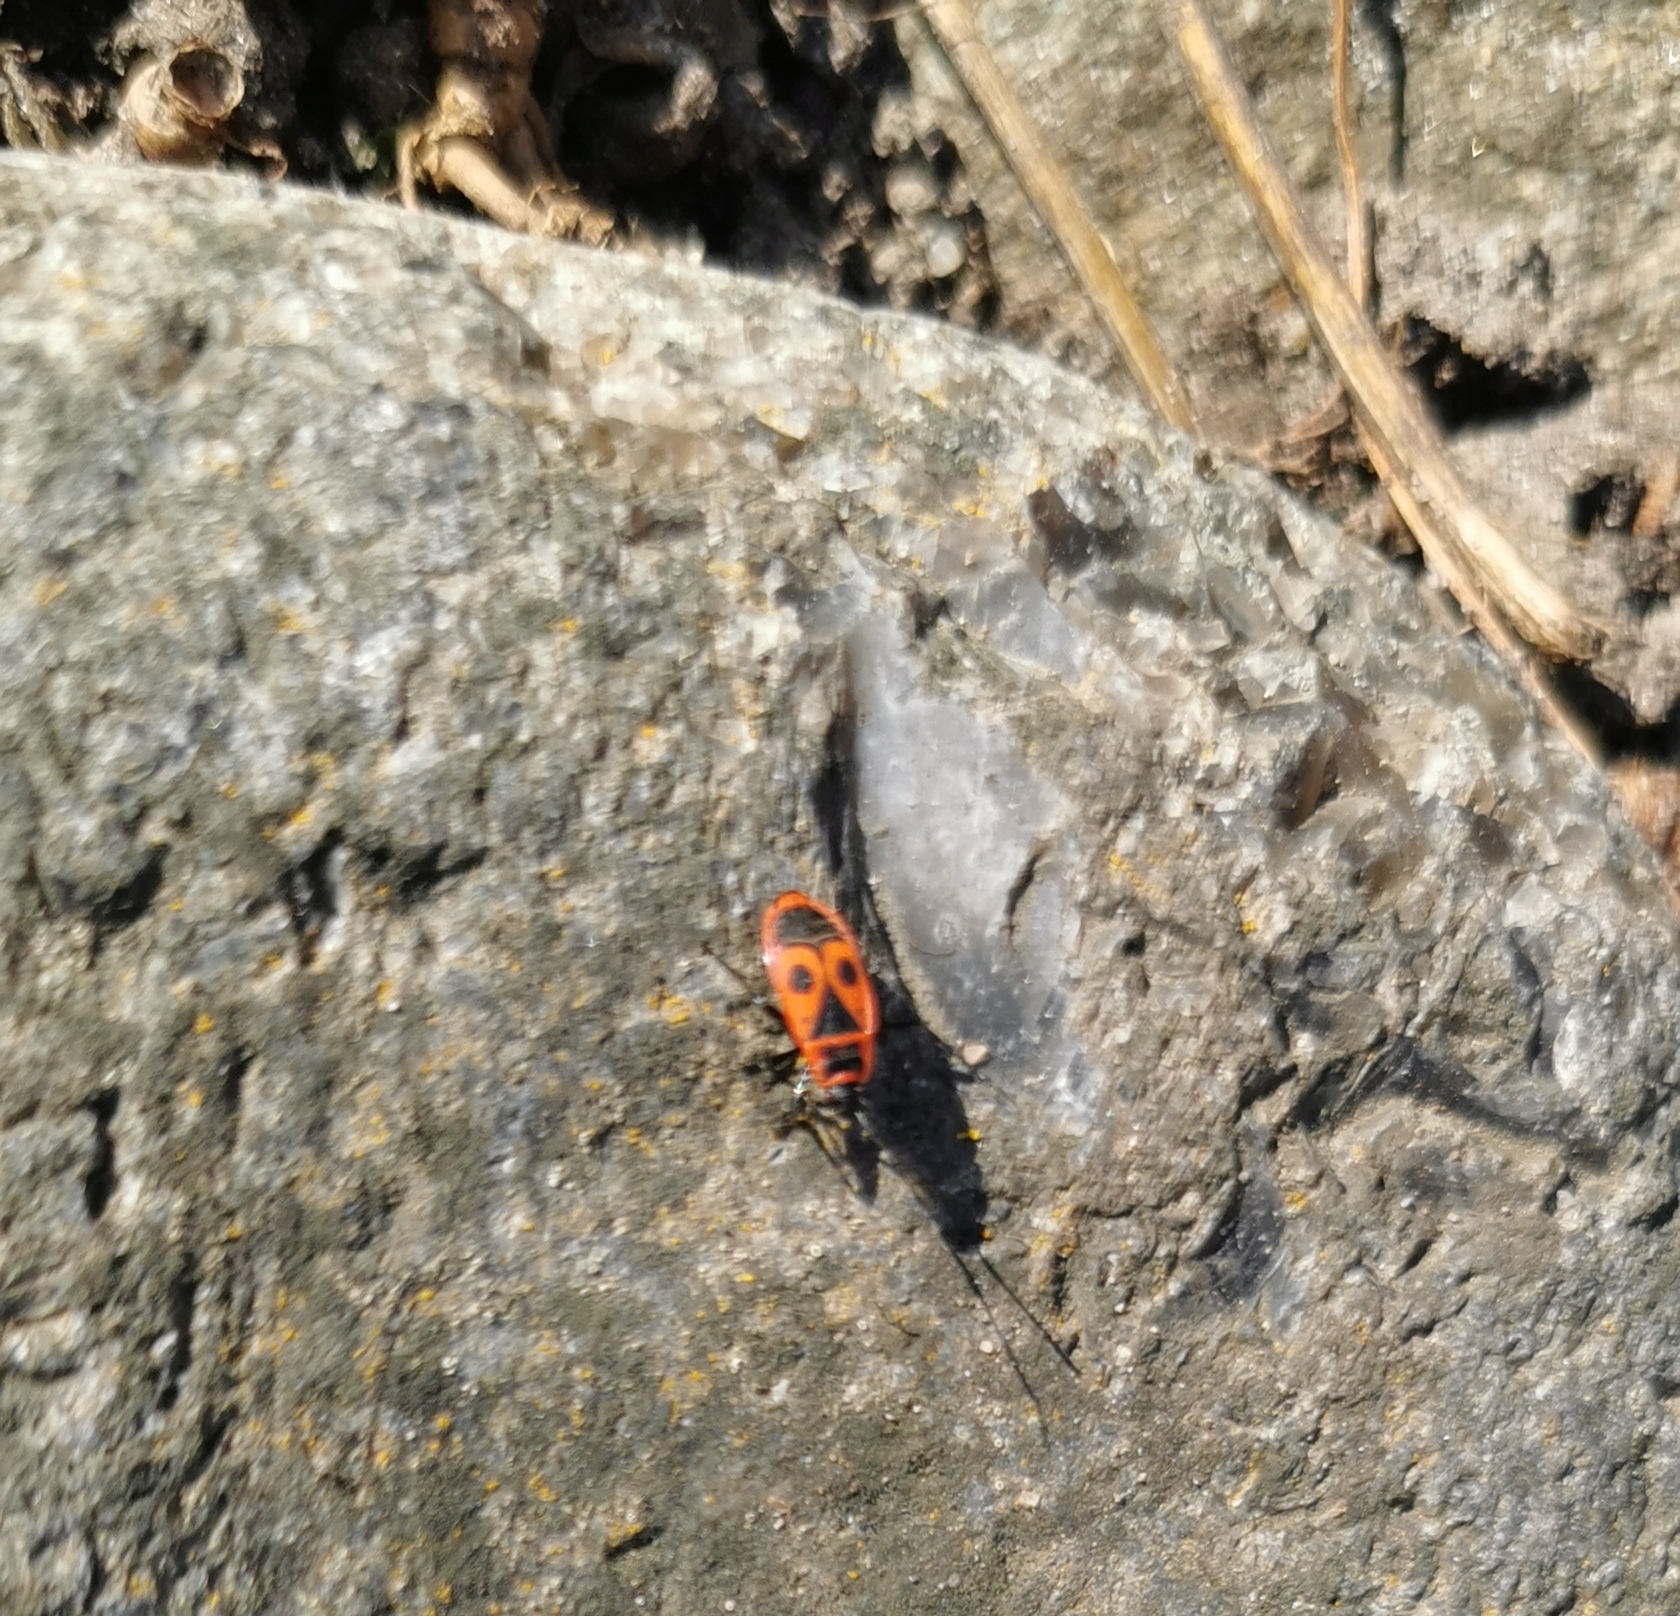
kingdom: Animalia
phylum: Arthropoda
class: Insecta
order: Hemiptera
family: Pyrrhocoridae
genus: Pyrrhocoris
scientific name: Pyrrhocoris apterus
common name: Firebug
